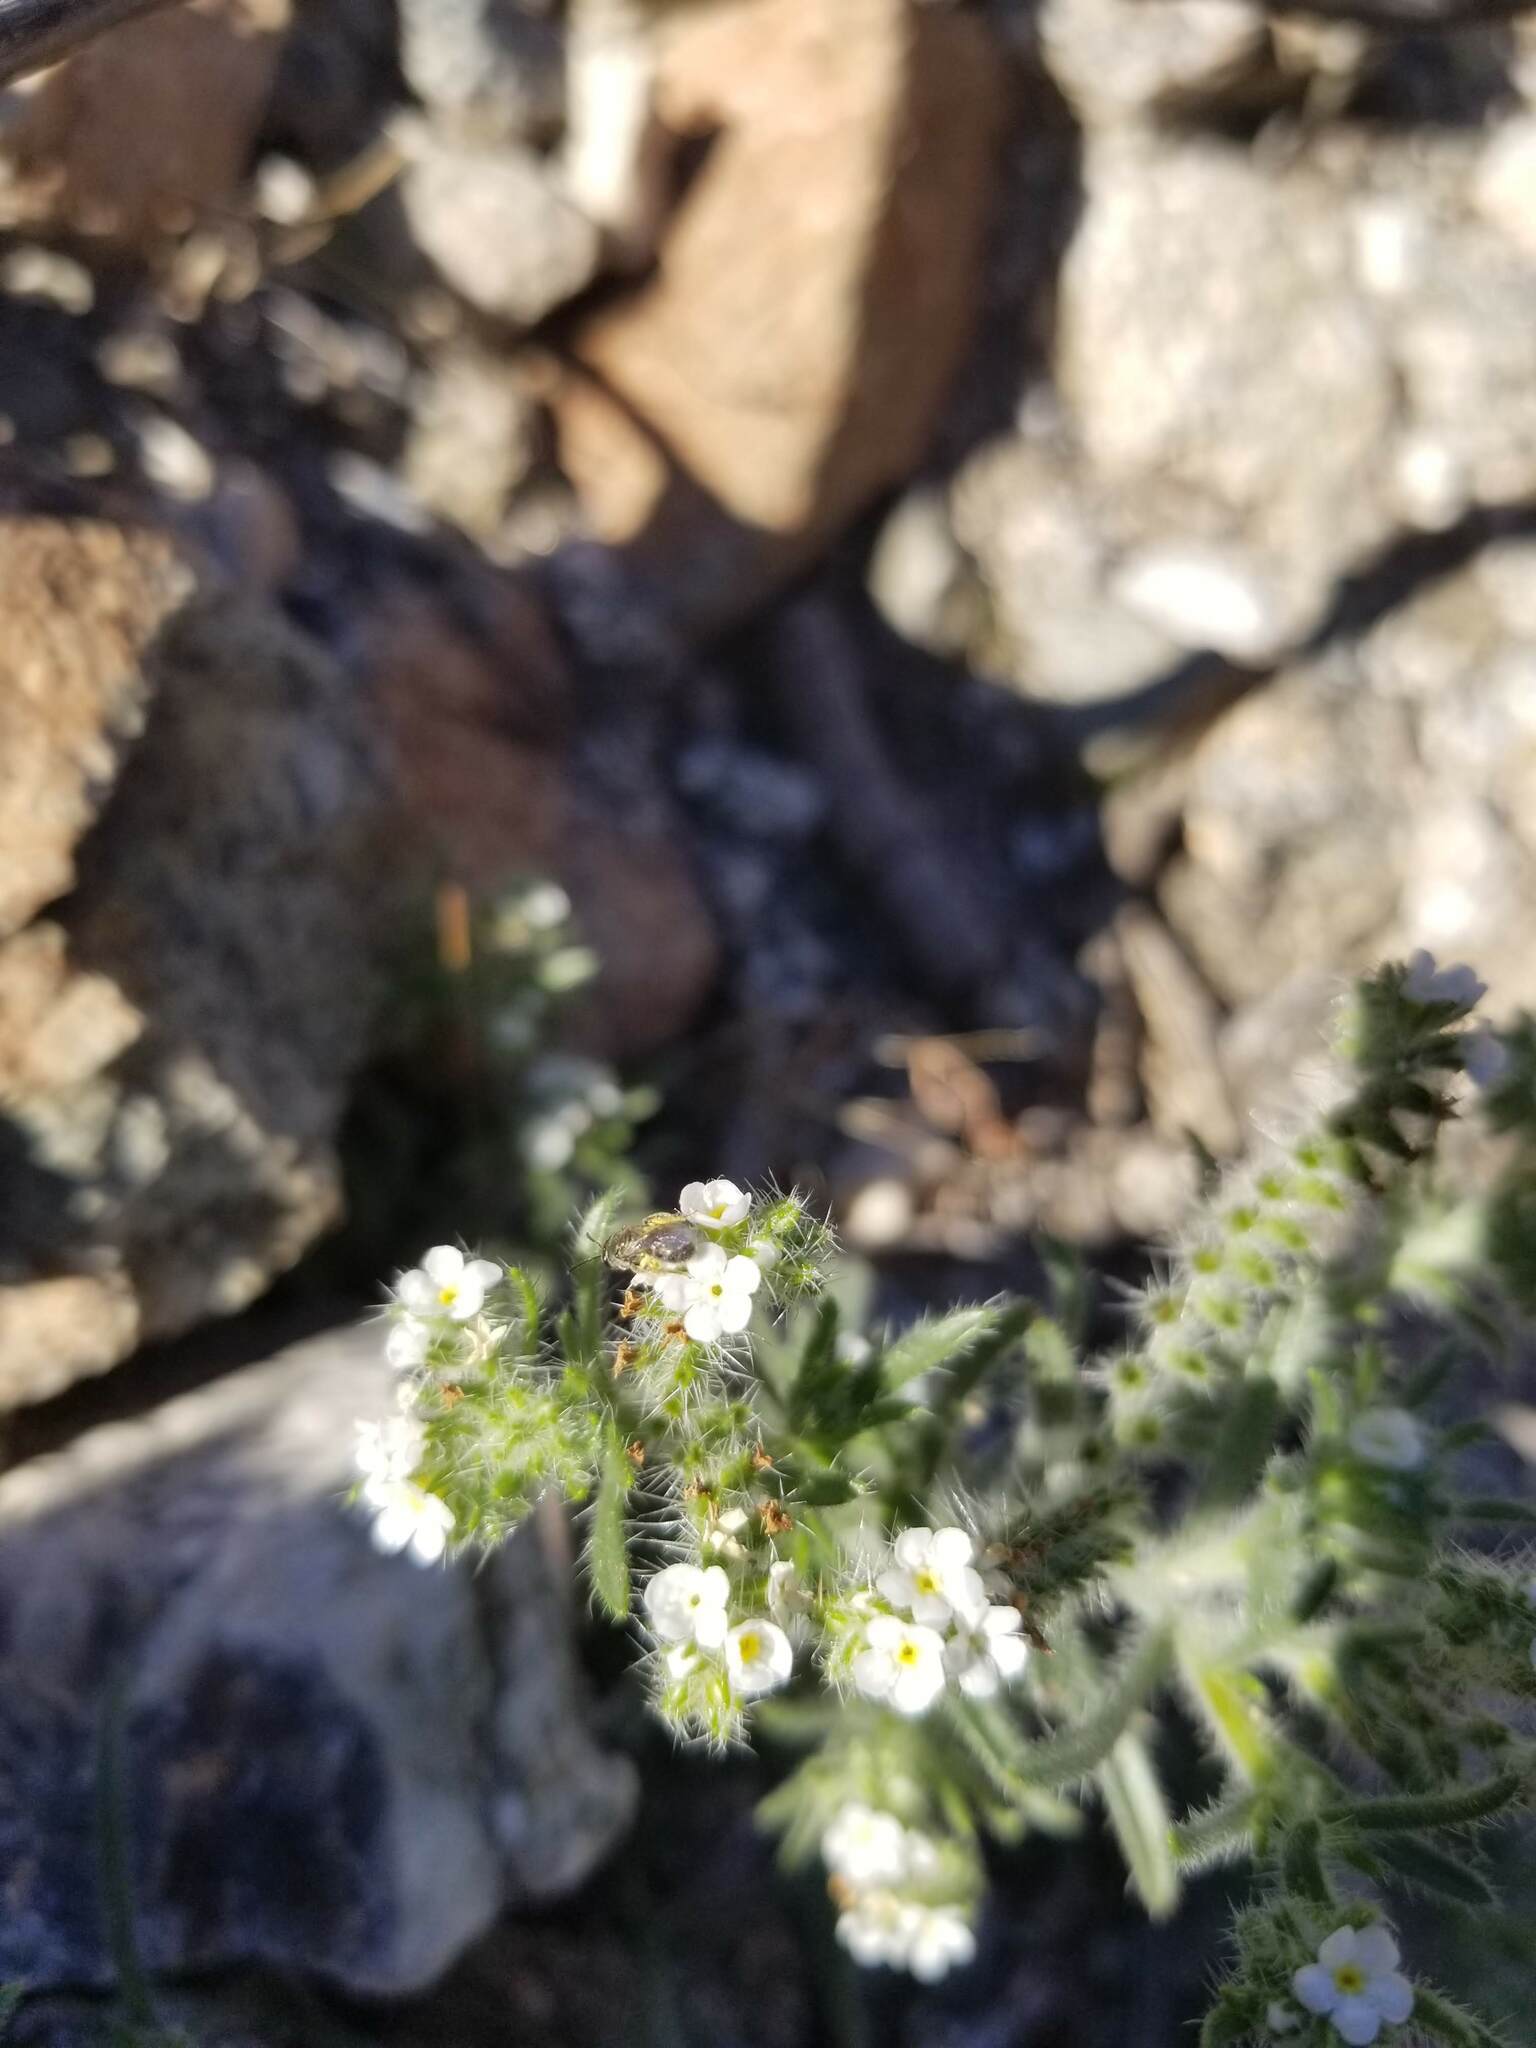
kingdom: Plantae
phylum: Tracheophyta
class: Magnoliopsida
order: Boraginales
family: Boraginaceae
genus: Johnstonella
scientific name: Johnstonella angustifolia
